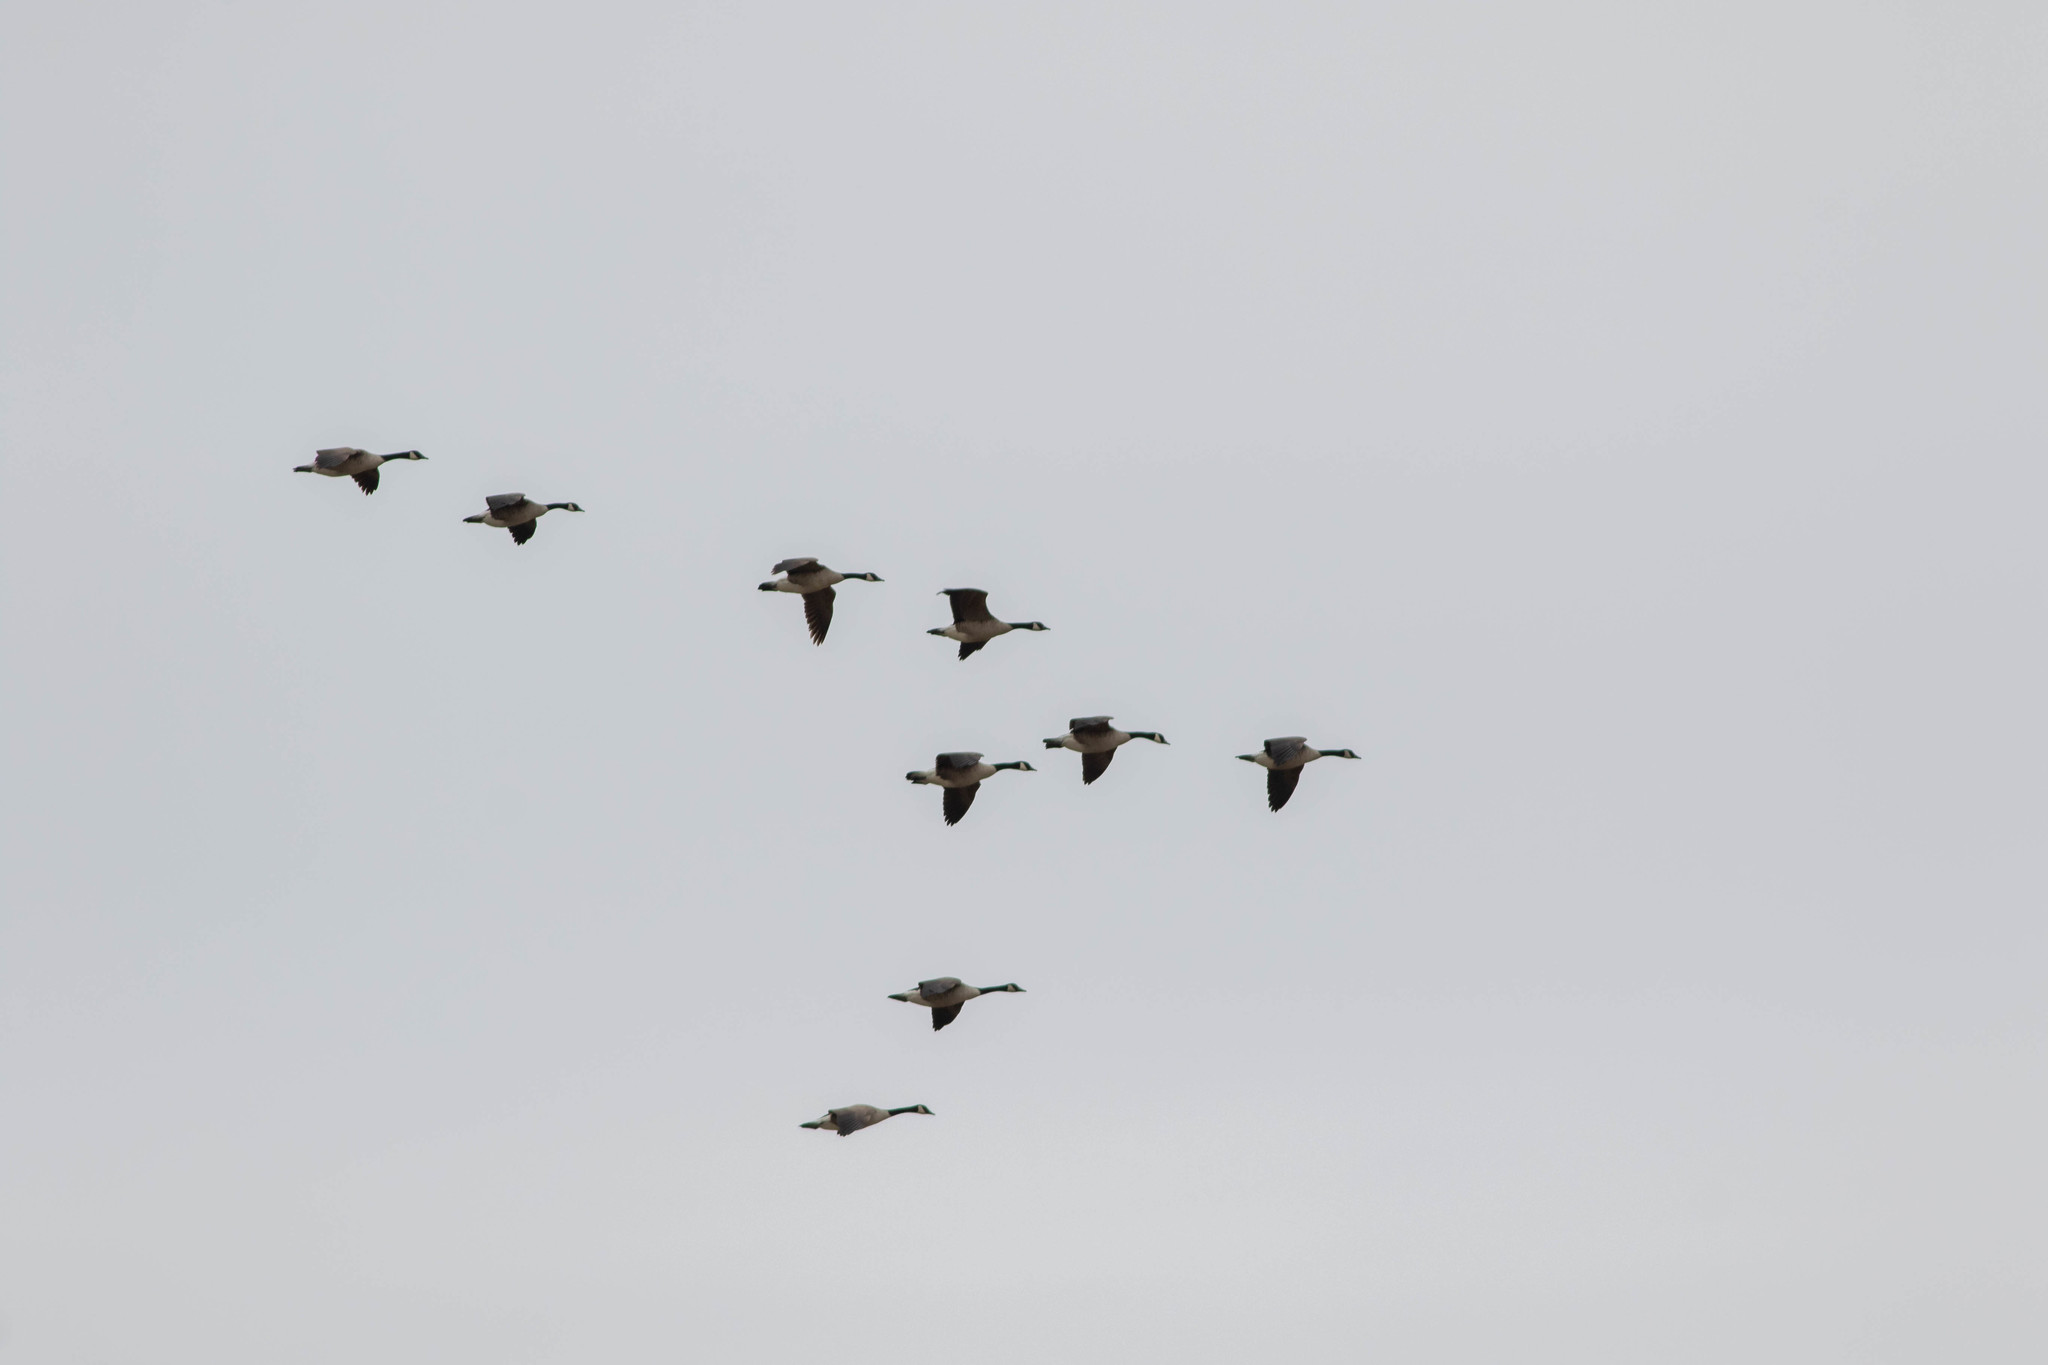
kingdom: Animalia
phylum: Chordata
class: Aves
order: Anseriformes
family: Anatidae
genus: Branta
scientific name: Branta canadensis
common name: Canada goose
